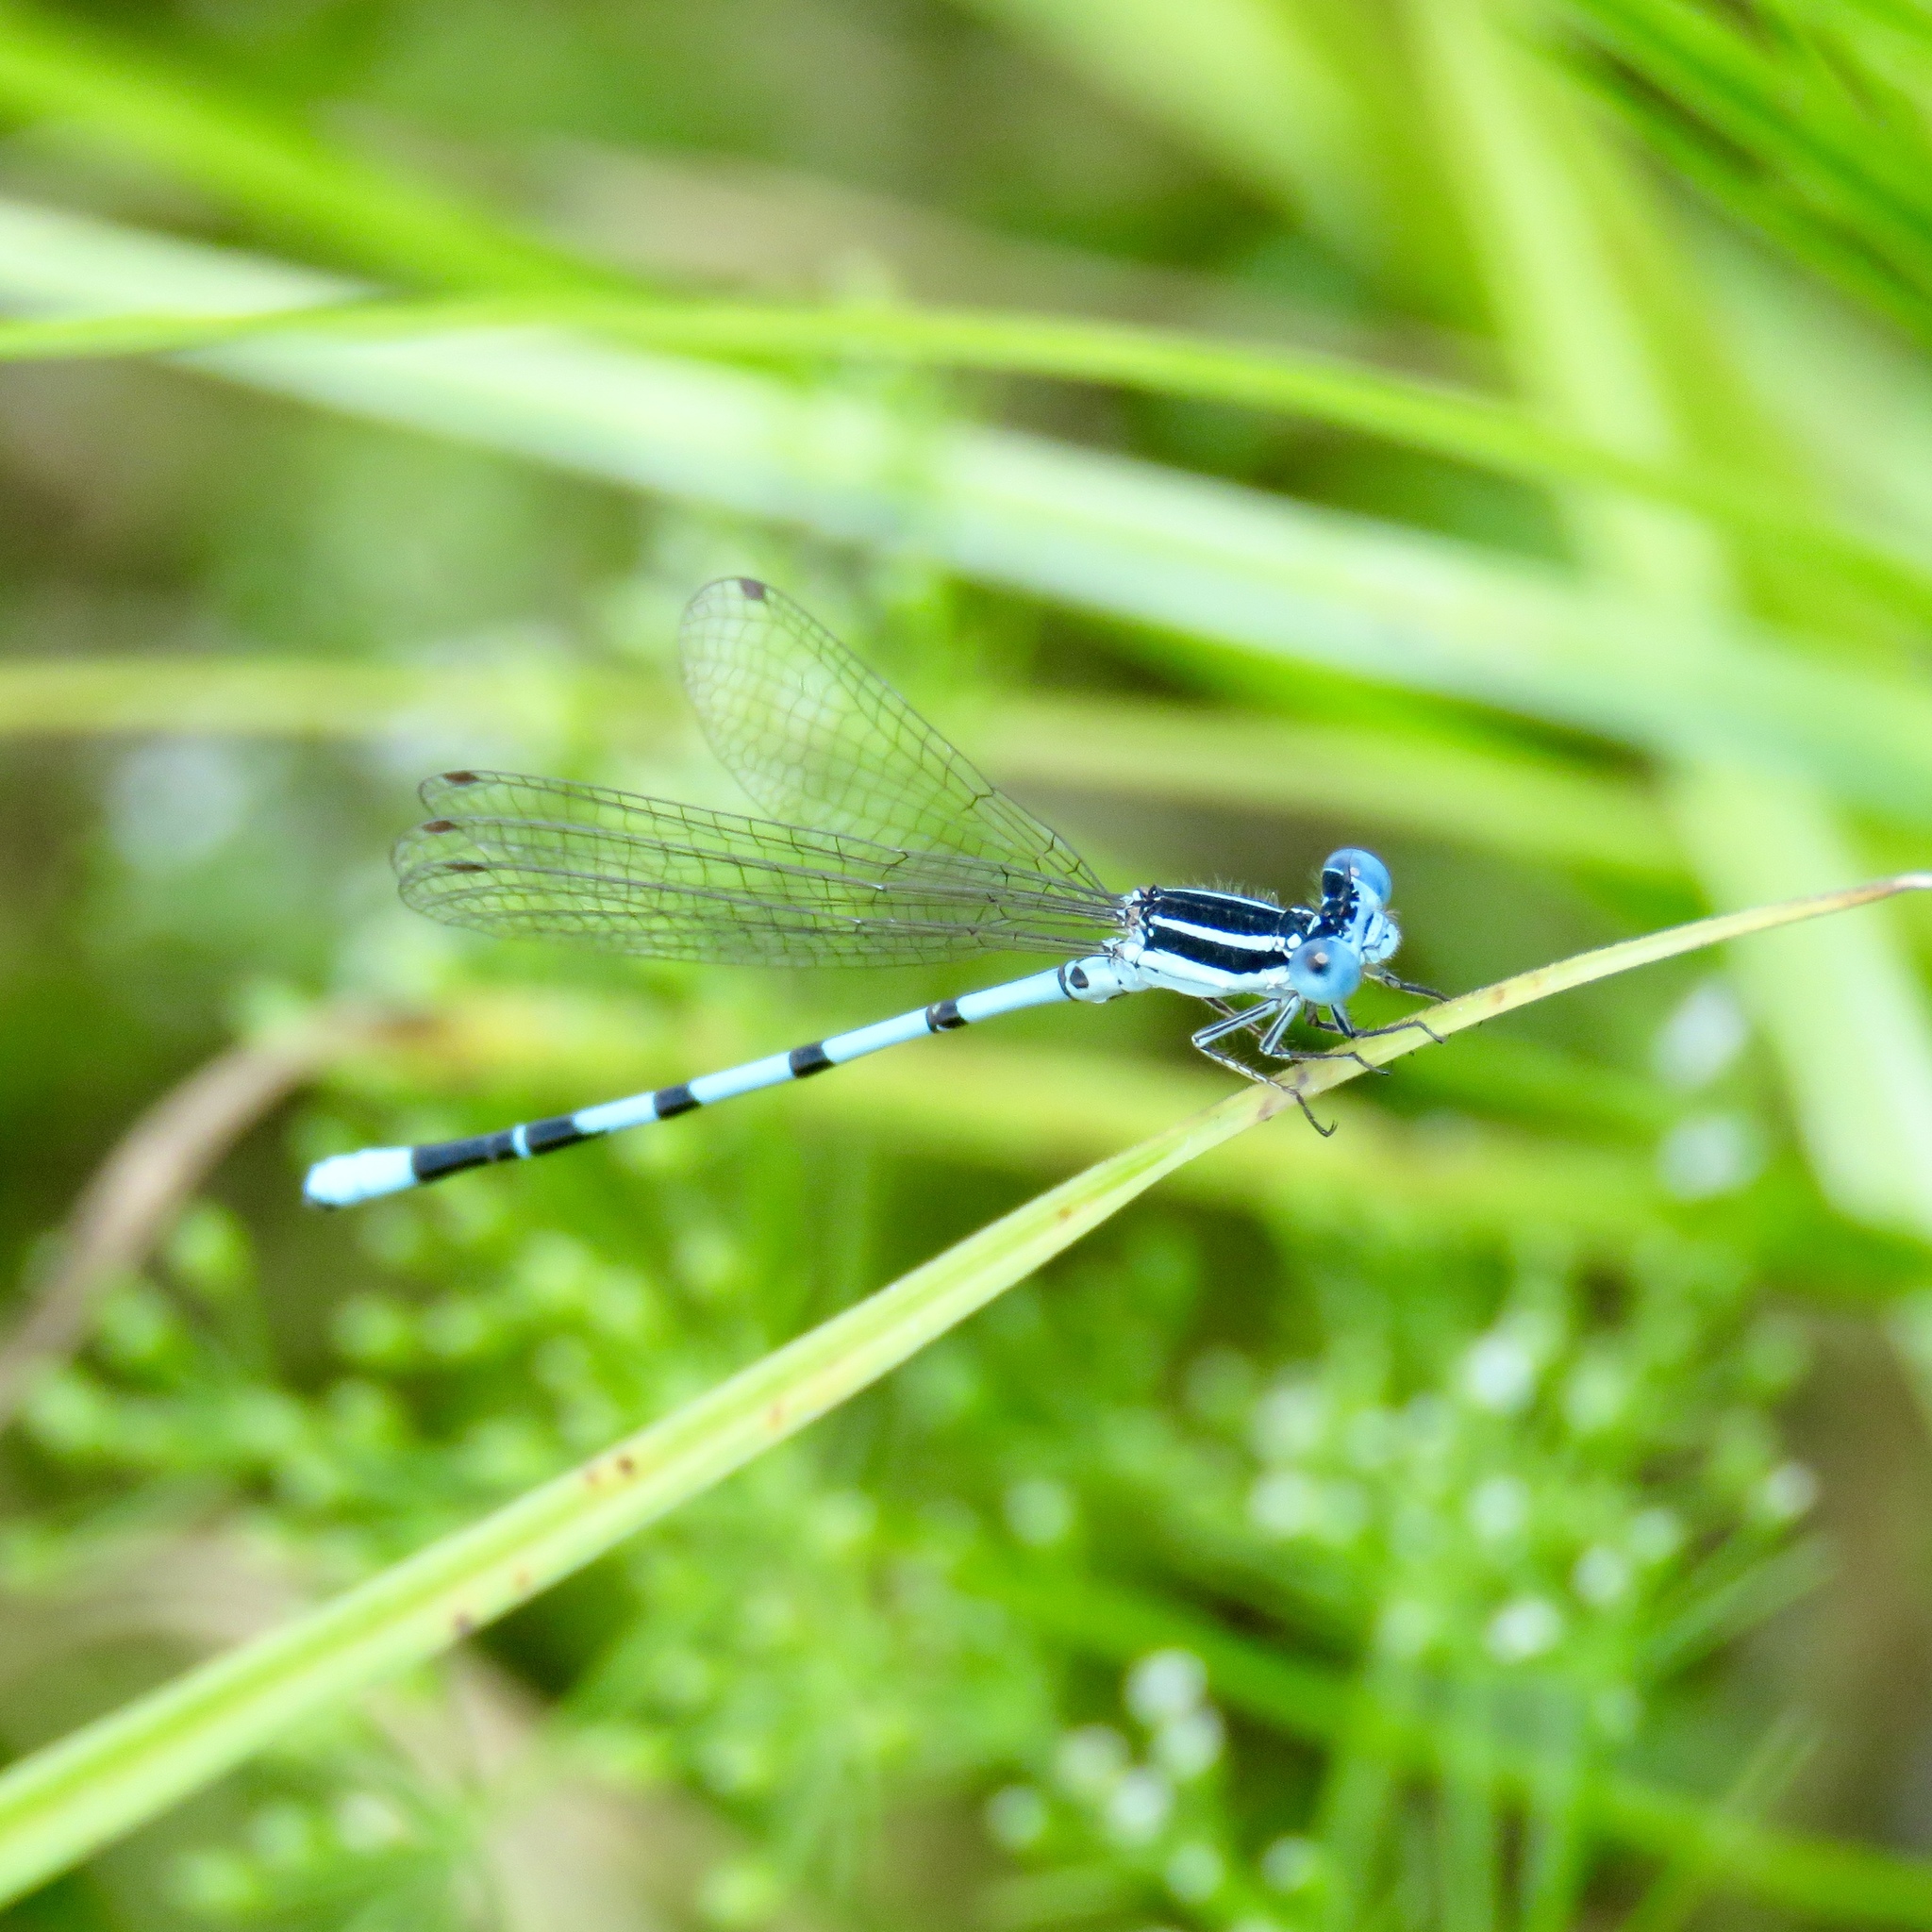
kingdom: Animalia
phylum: Arthropoda
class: Insecta
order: Odonata
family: Coenagrionidae
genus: Argia
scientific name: Argia bipunctulata
